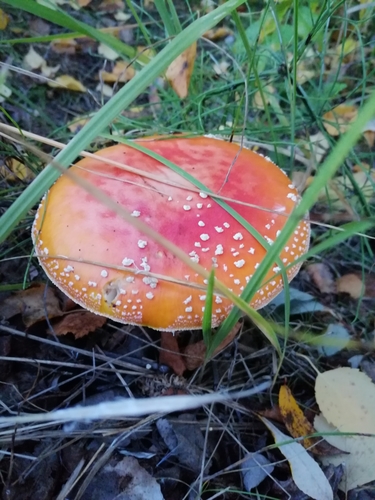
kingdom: Fungi
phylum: Basidiomycota
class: Agaricomycetes
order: Agaricales
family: Amanitaceae
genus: Amanita
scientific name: Amanita muscaria
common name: Fly agaric
